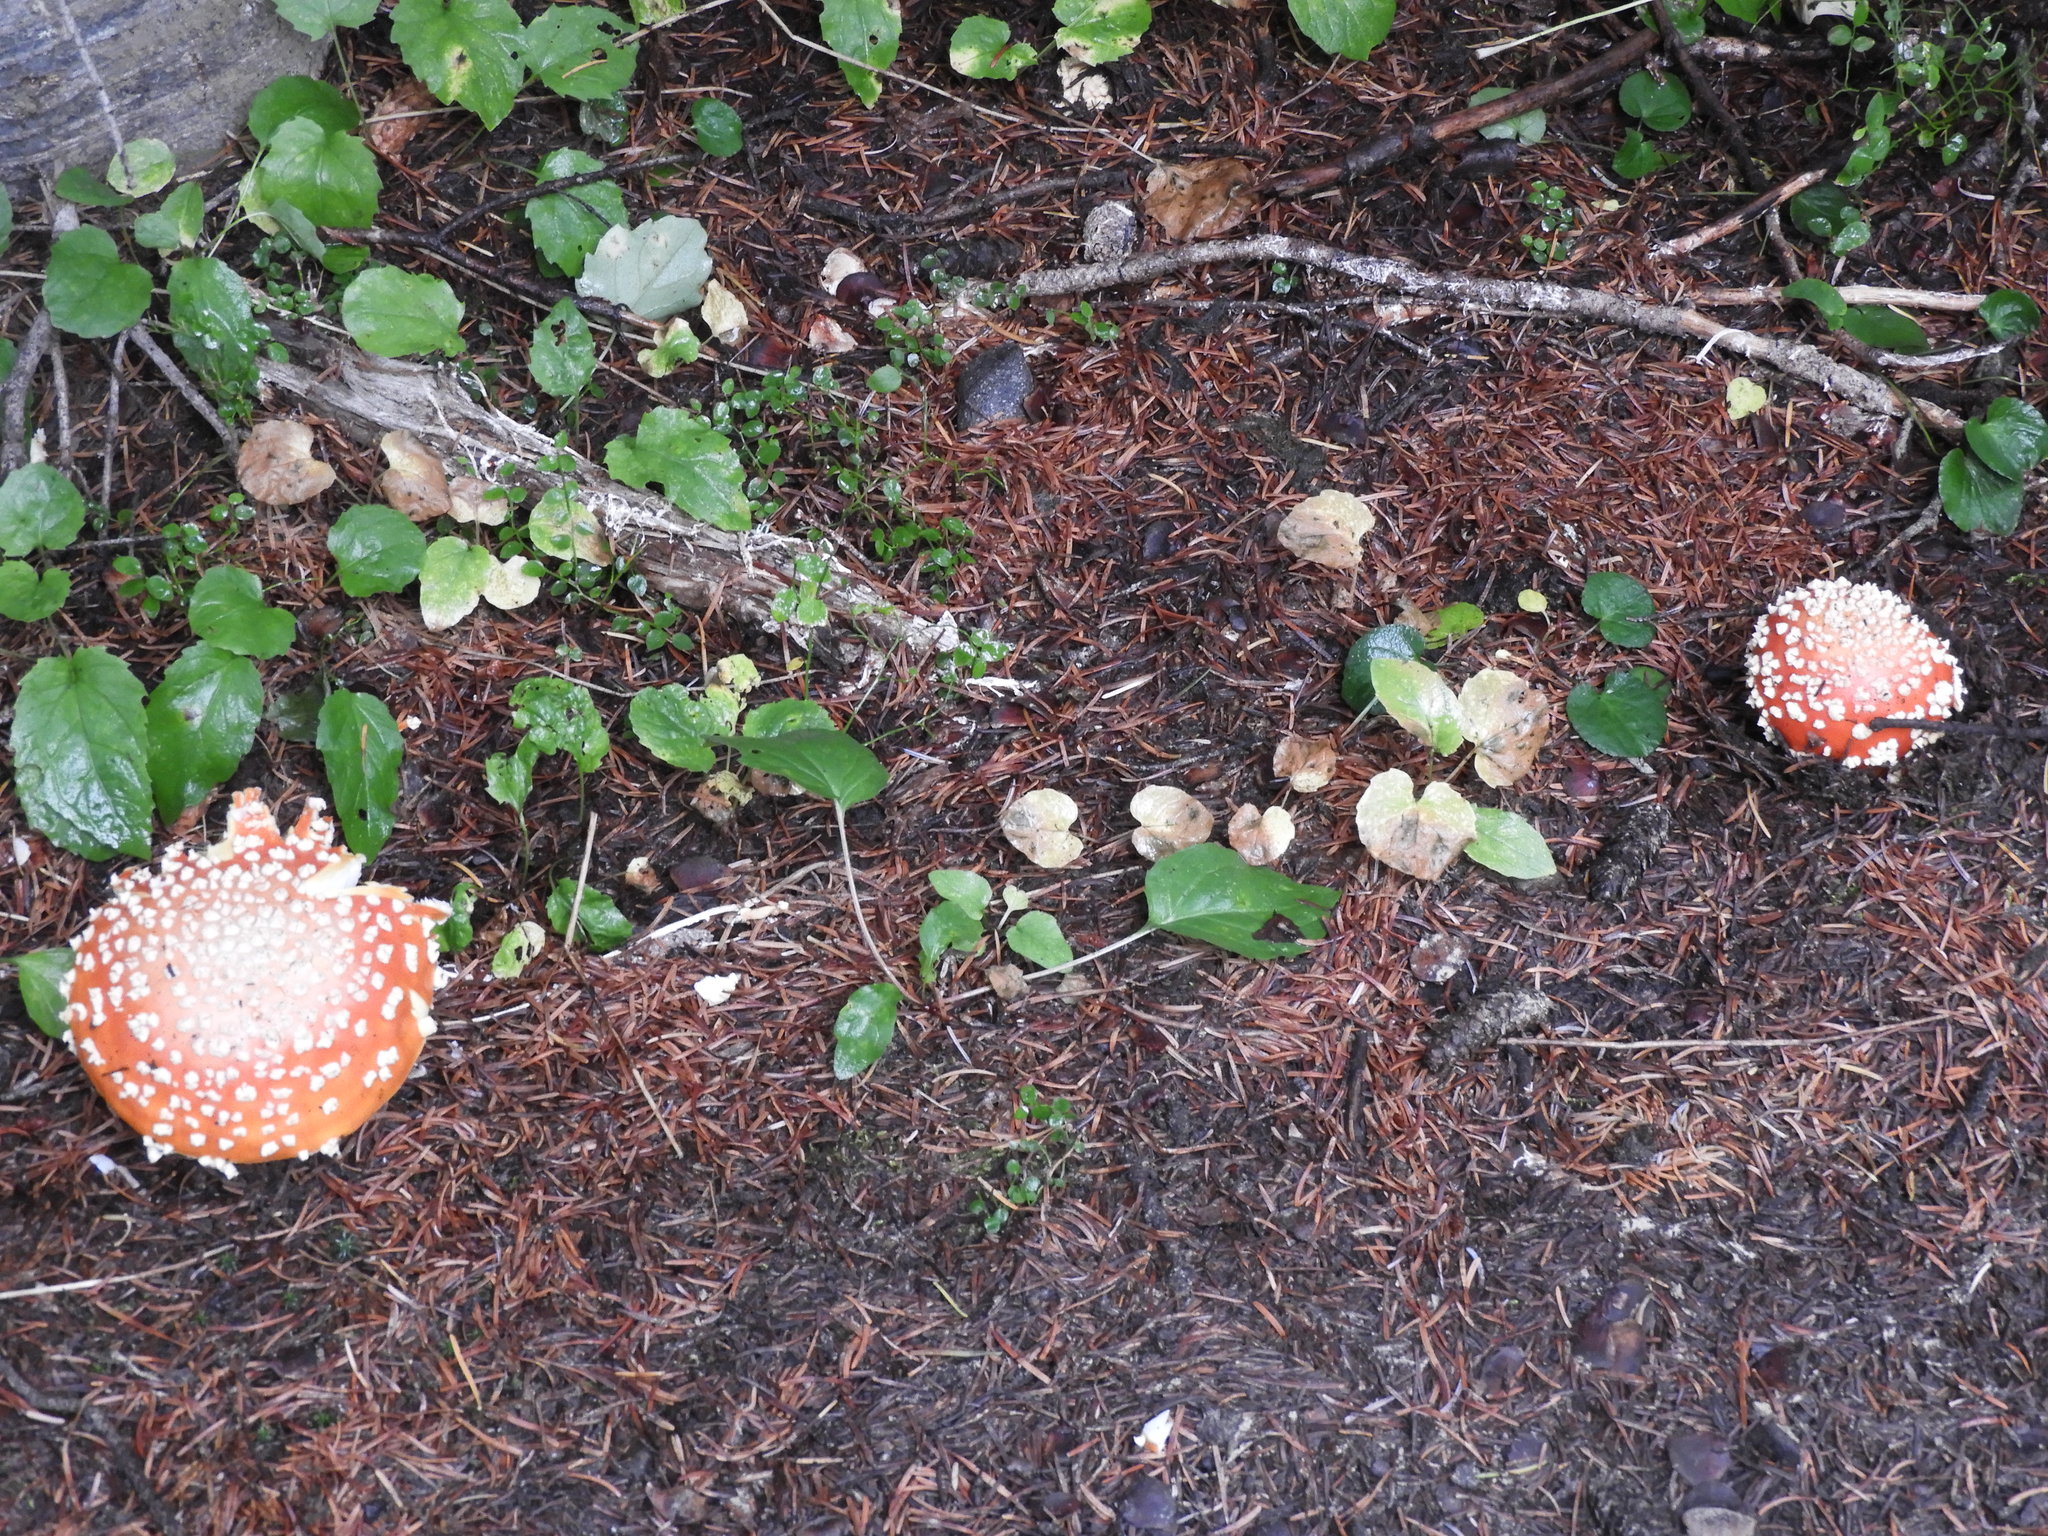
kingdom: Fungi
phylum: Basidiomycota
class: Agaricomycetes
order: Agaricales
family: Amanitaceae
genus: Amanita
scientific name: Amanita muscaria
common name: Fly agaric
